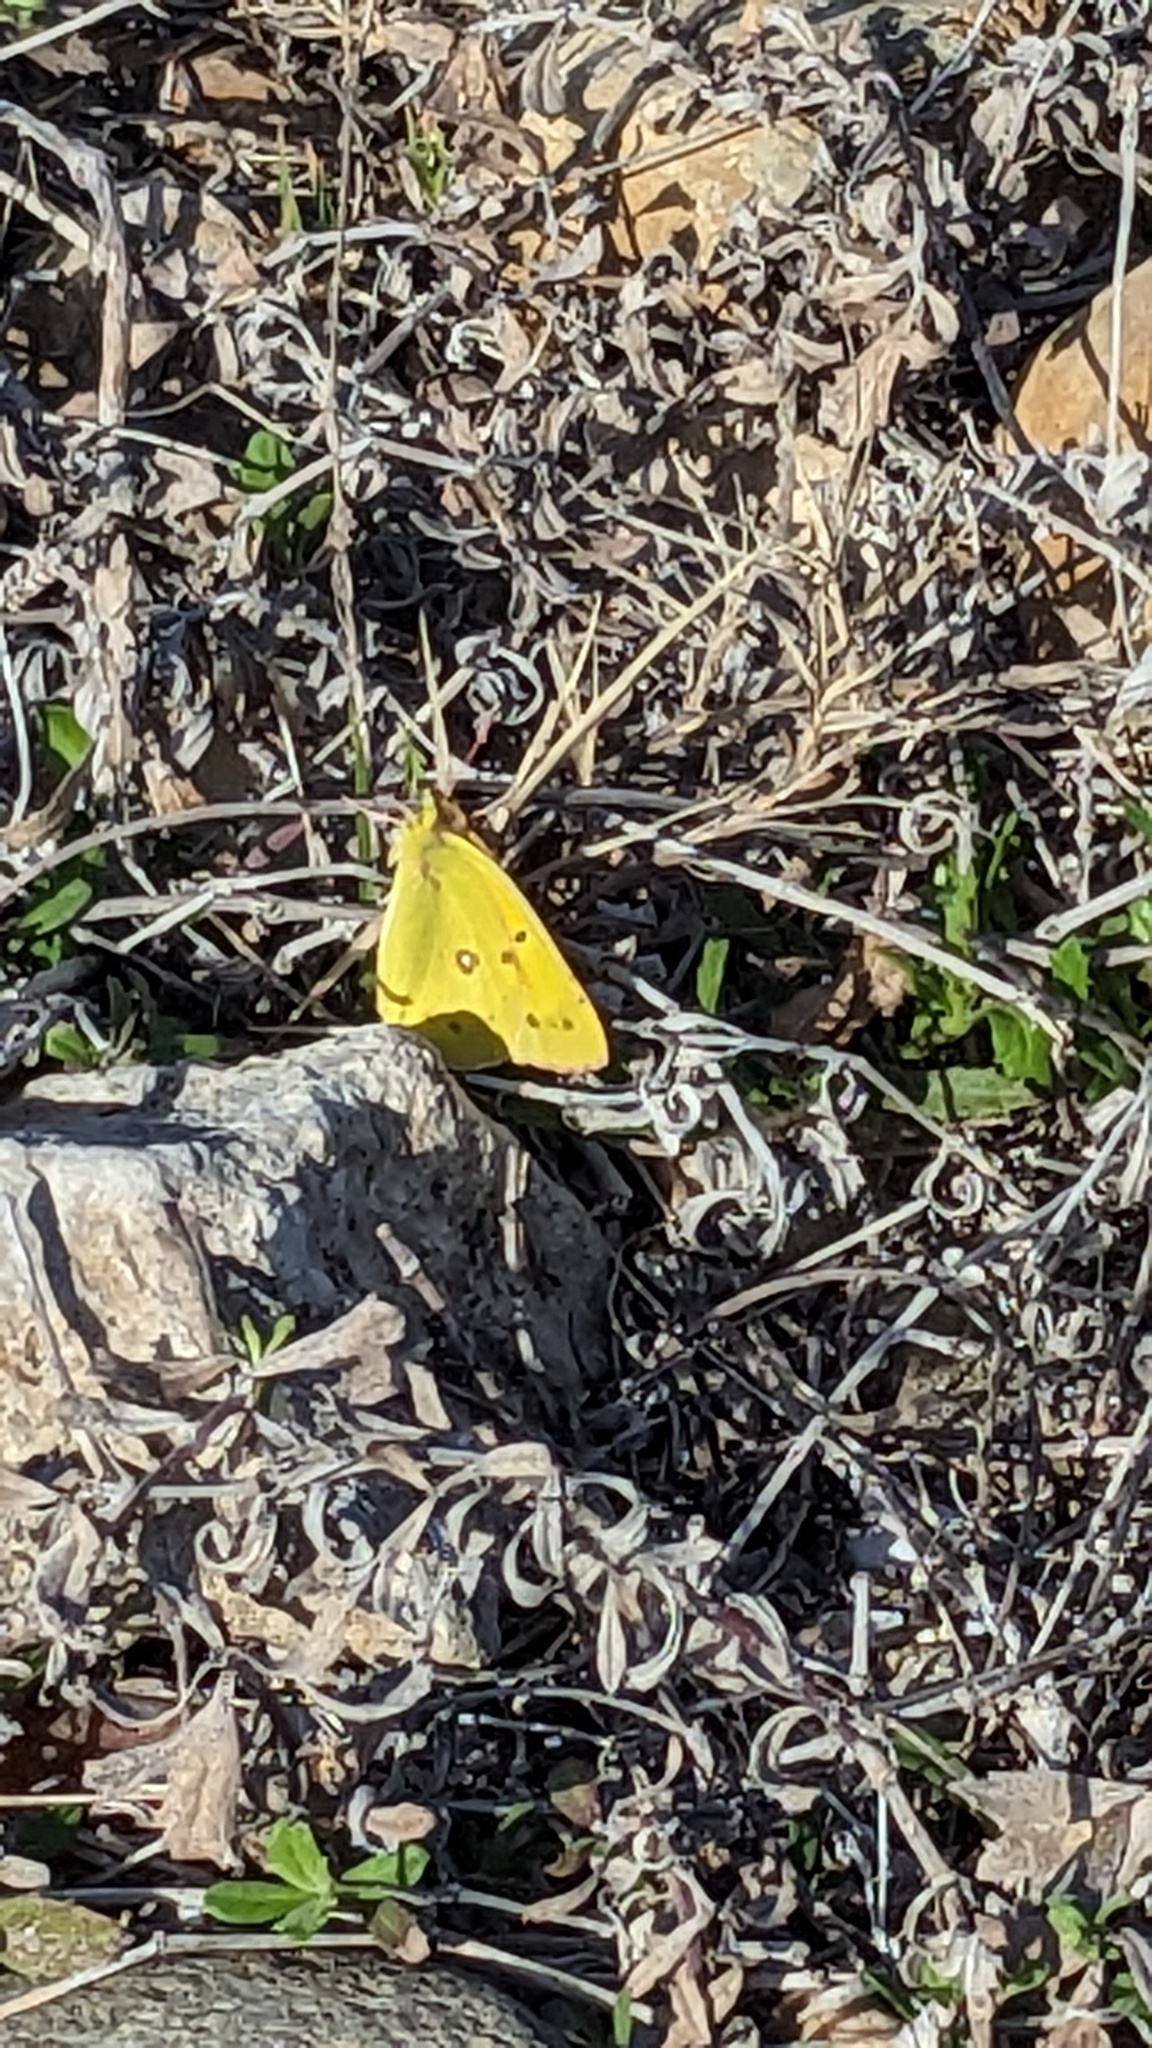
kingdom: Animalia
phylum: Arthropoda
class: Insecta
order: Lepidoptera
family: Pieridae
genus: Colias
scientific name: Colias eurytheme
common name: Alfalfa butterfly
